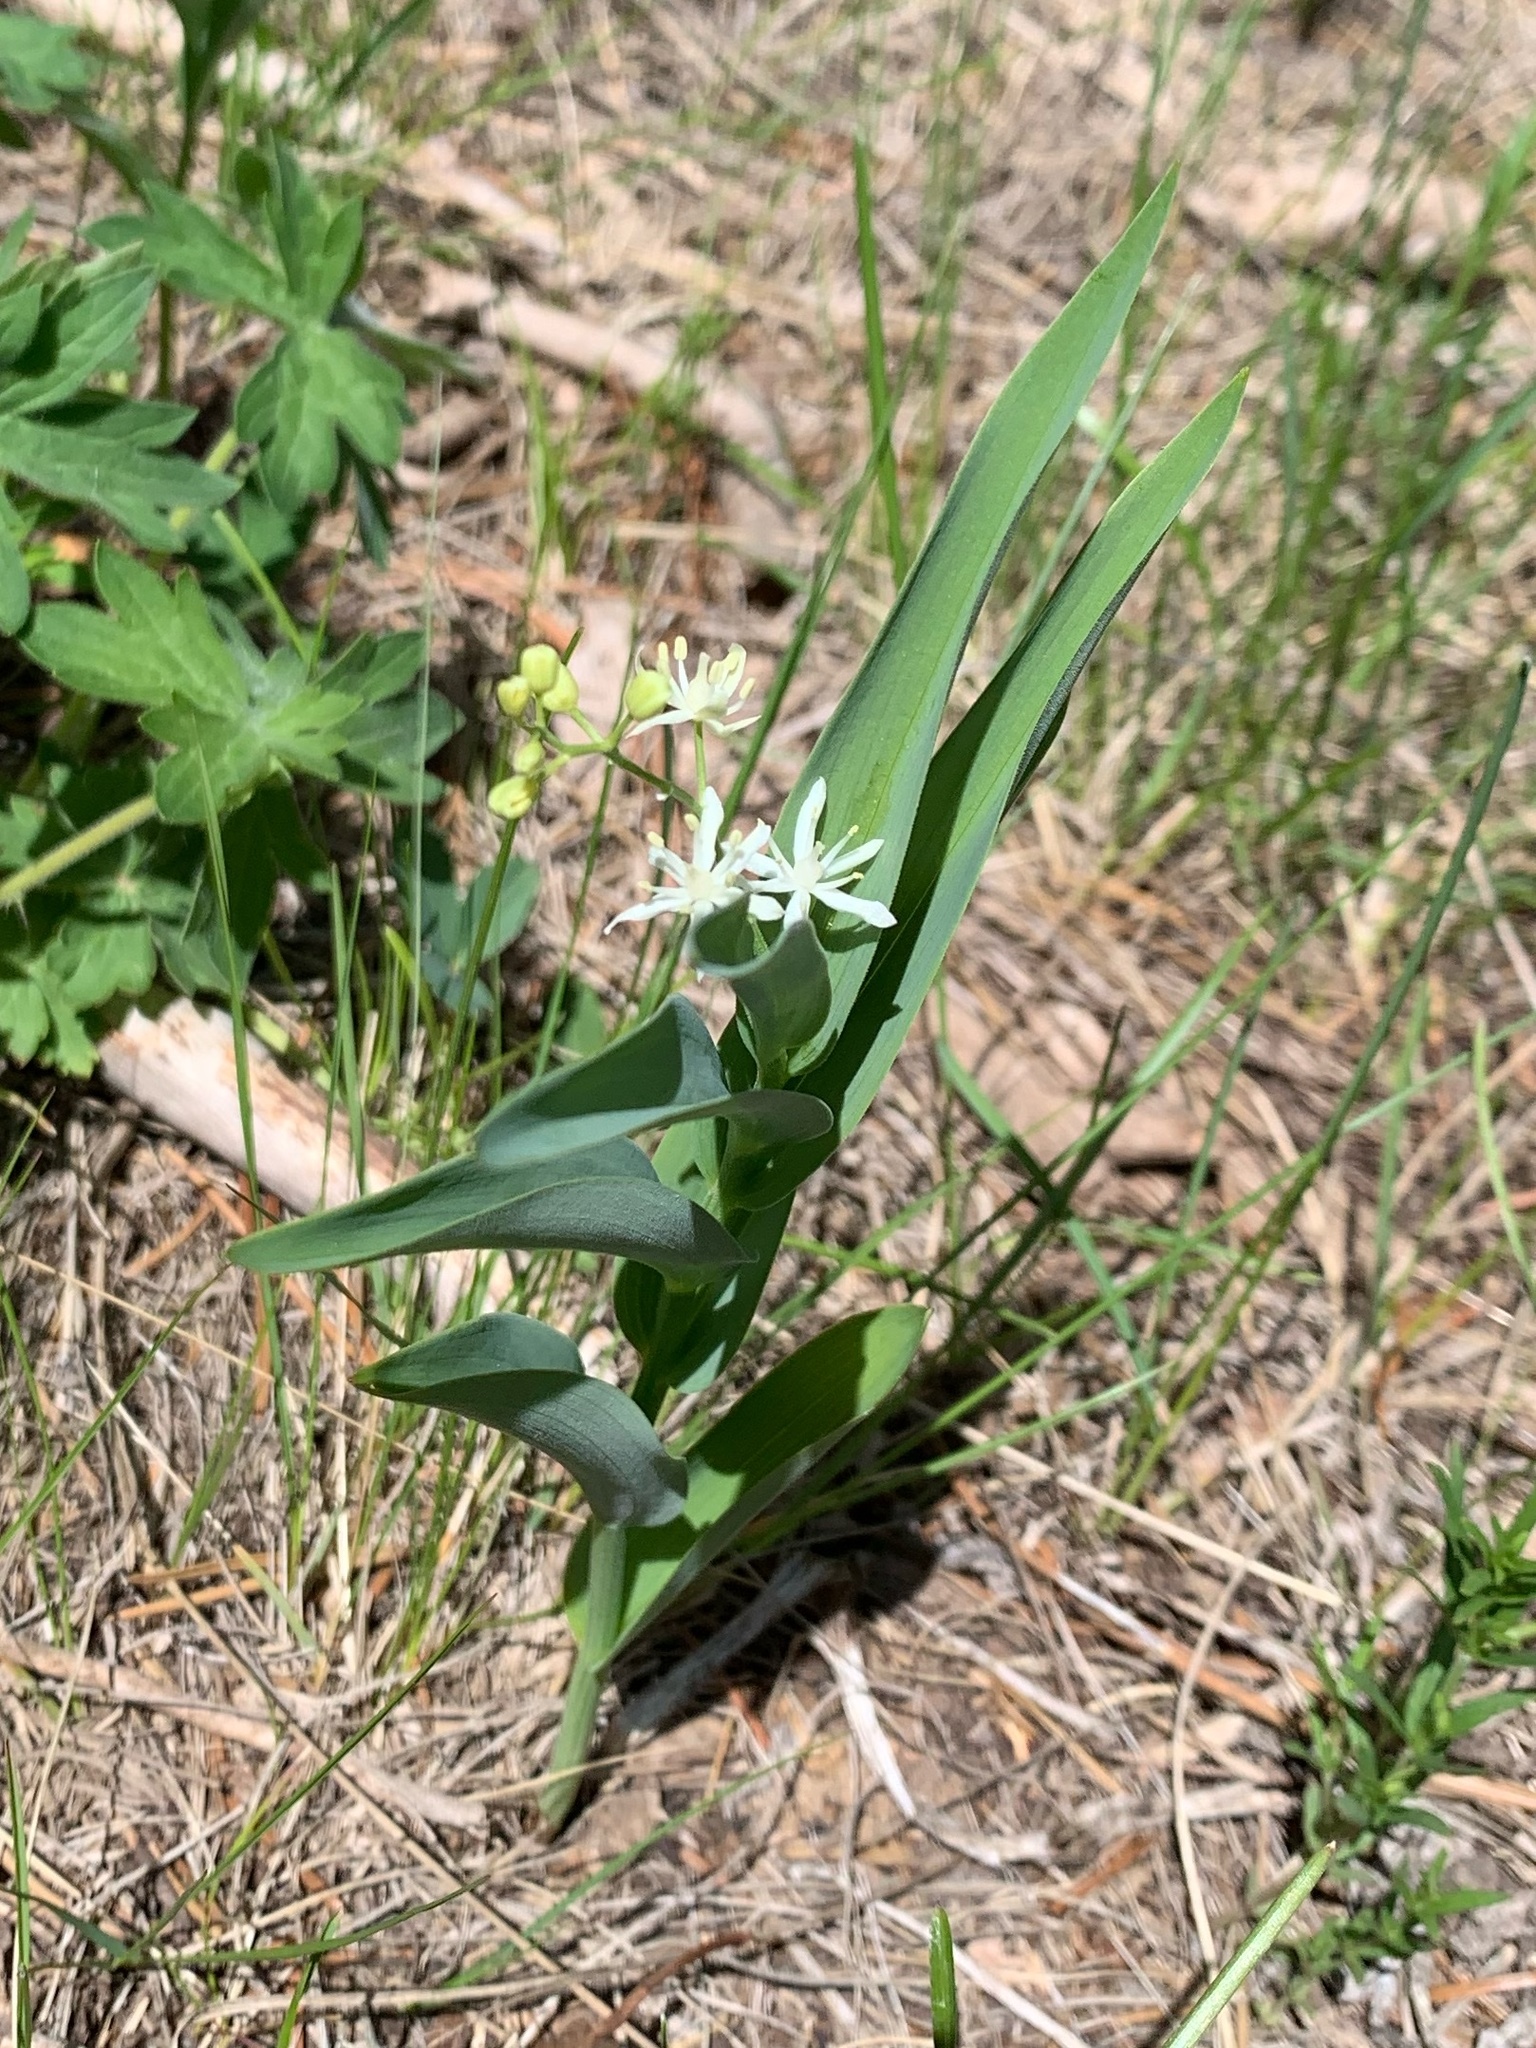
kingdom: Plantae
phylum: Tracheophyta
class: Liliopsida
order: Asparagales
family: Asparagaceae
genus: Maianthemum
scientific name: Maianthemum stellatum
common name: Little false solomon's seal
